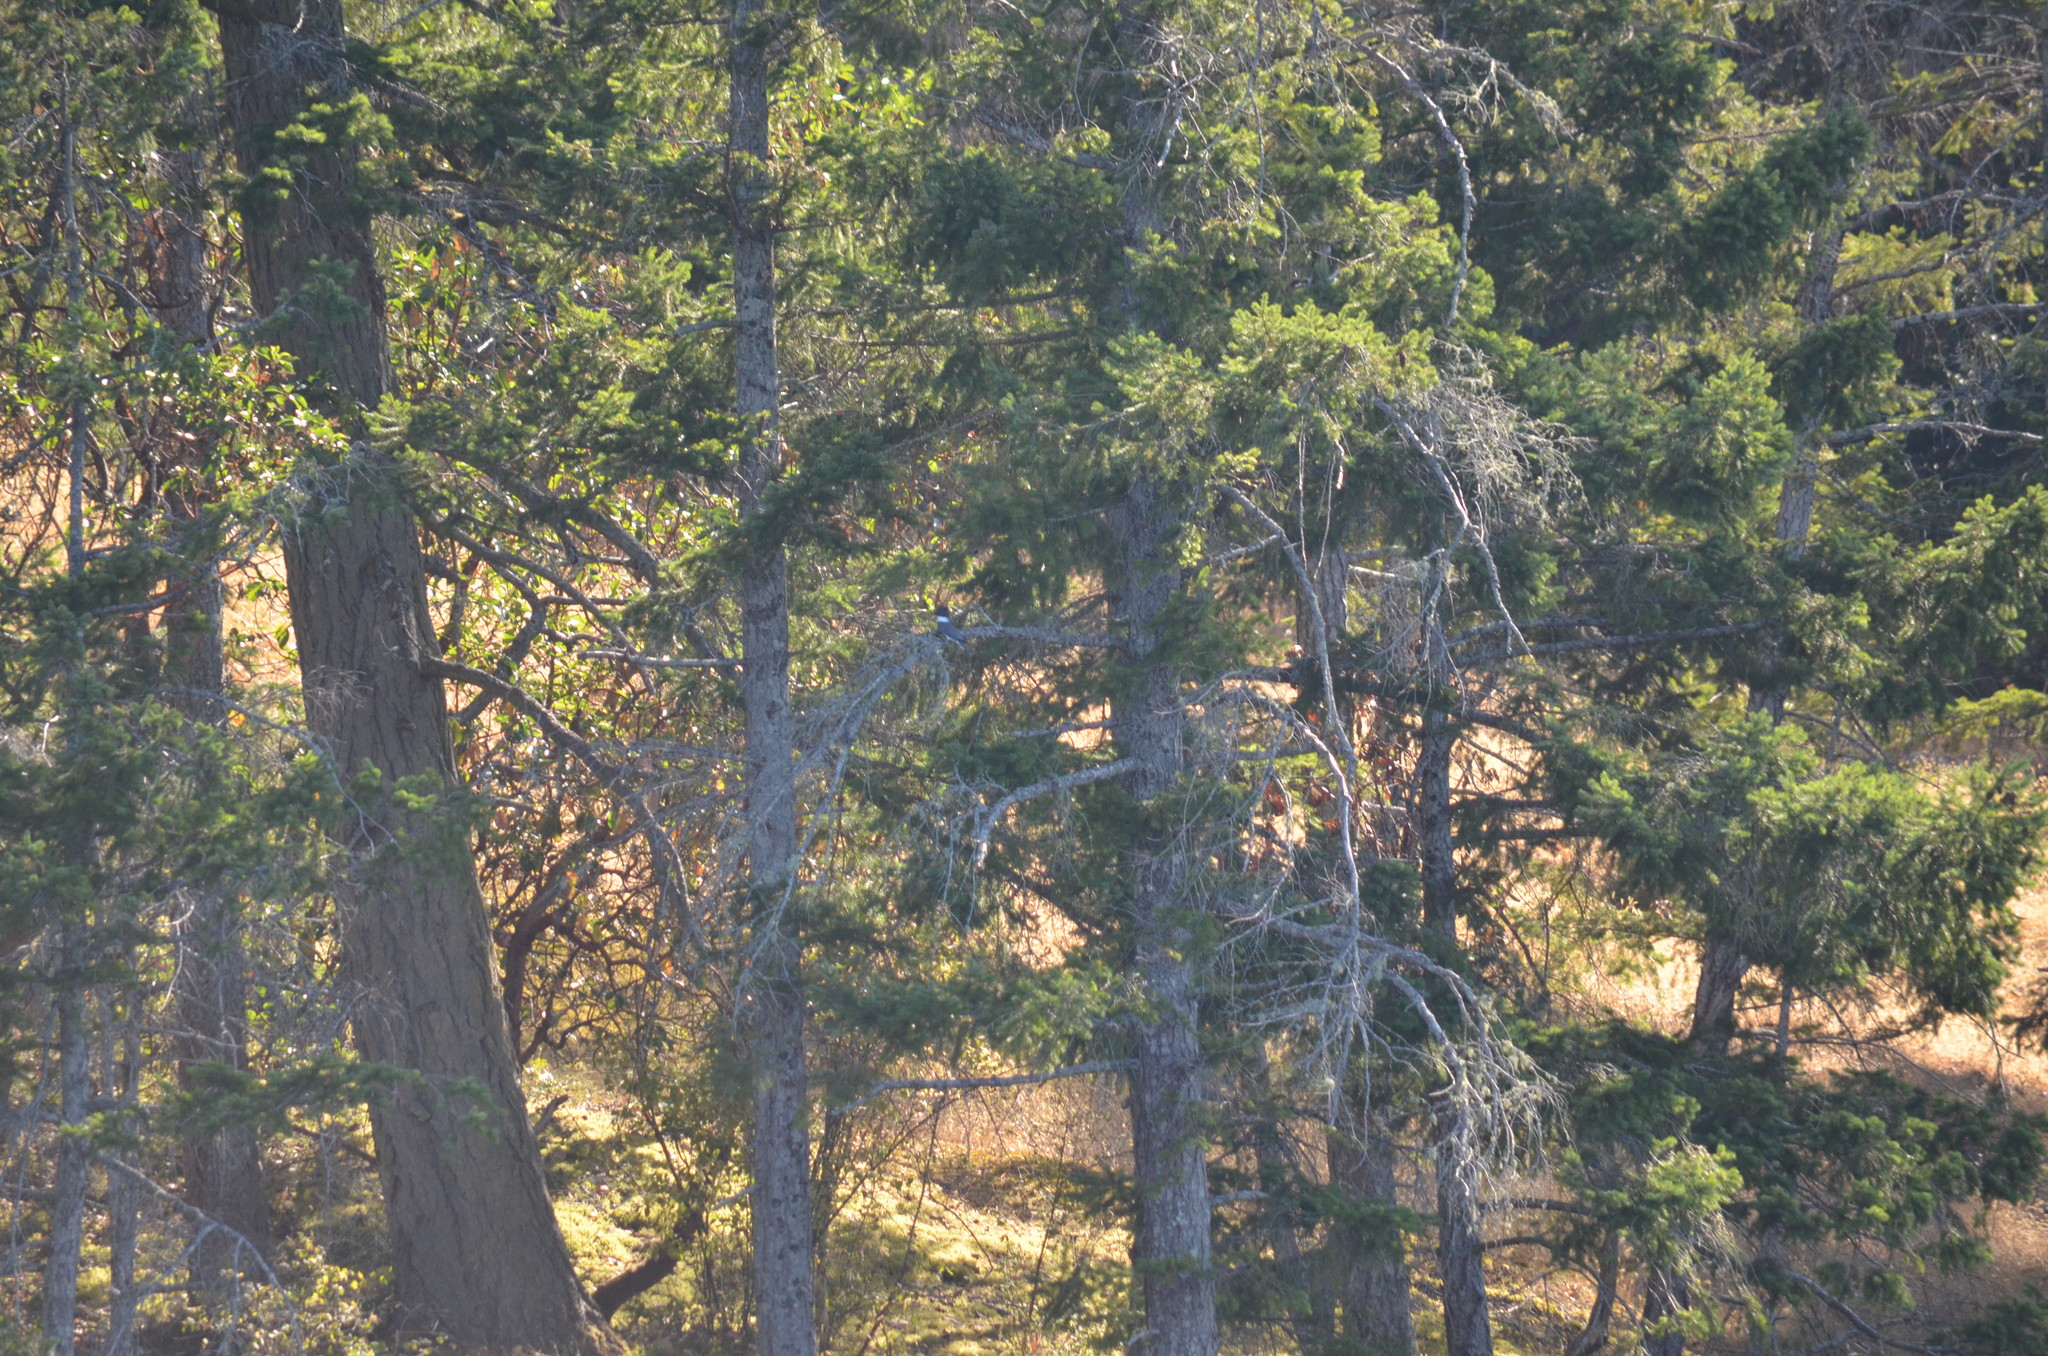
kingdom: Animalia
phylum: Chordata
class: Aves
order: Coraciiformes
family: Alcedinidae
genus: Megaceryle
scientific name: Megaceryle alcyon
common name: Belted kingfisher
